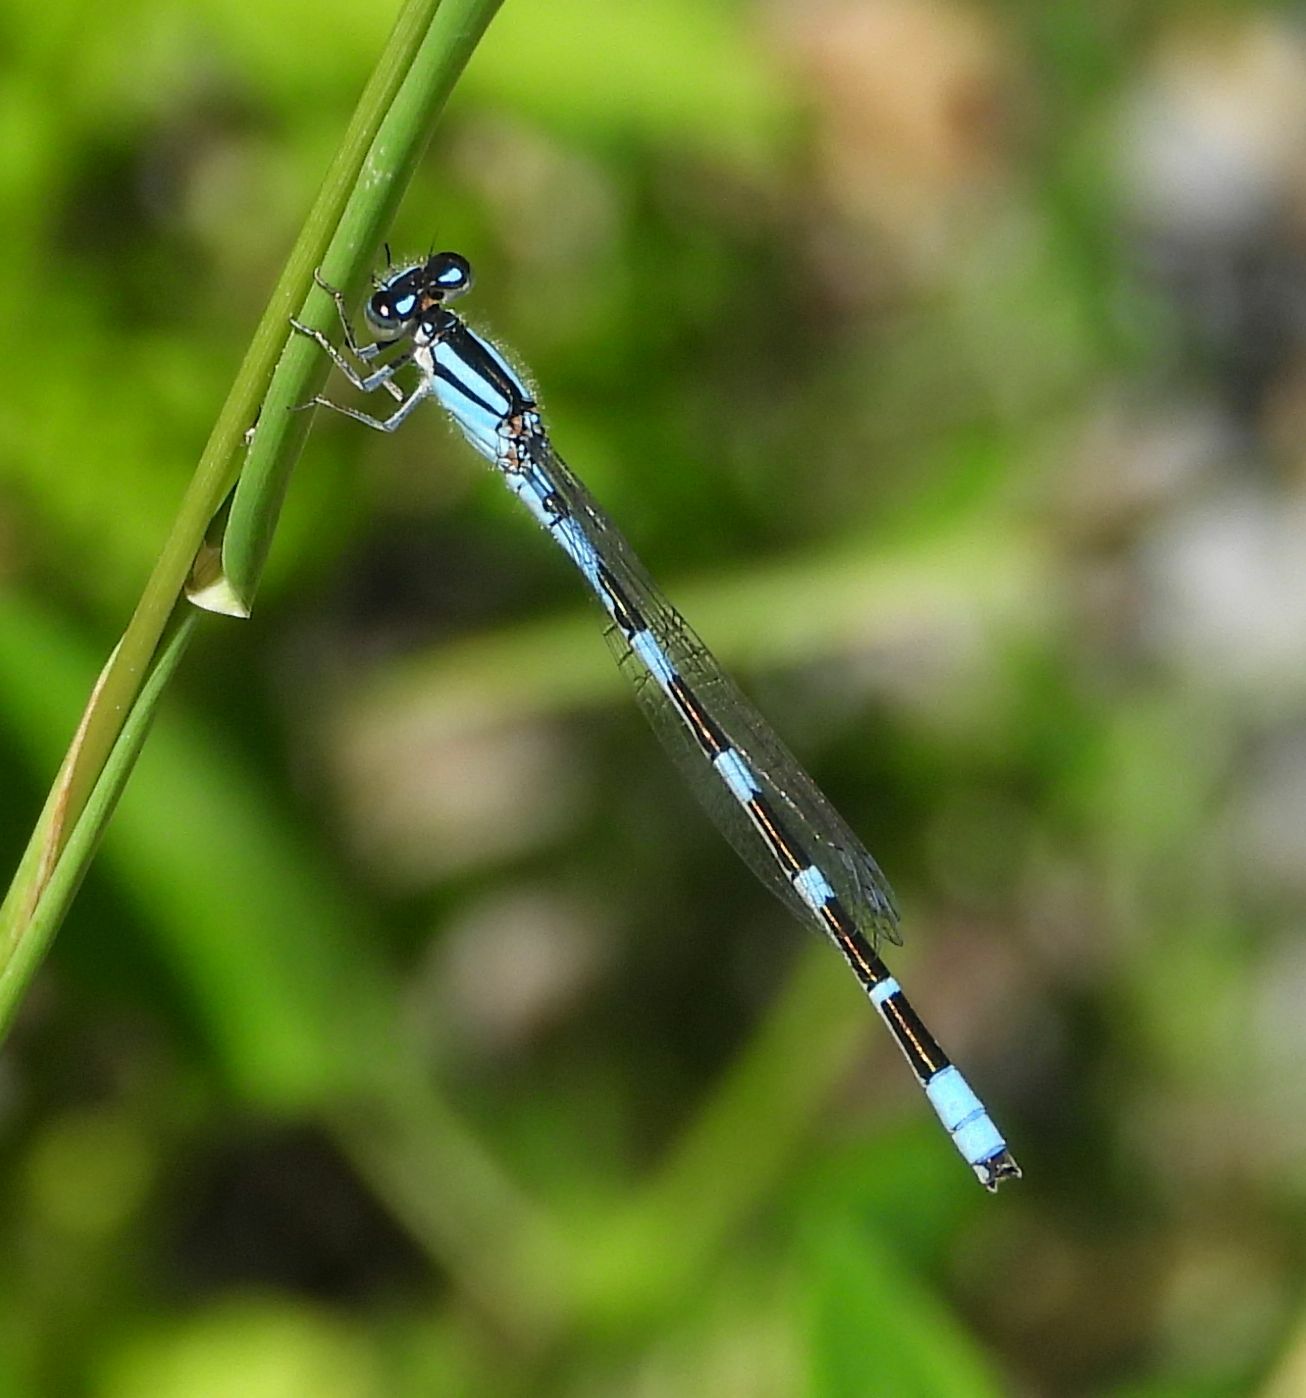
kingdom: Animalia
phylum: Arthropoda
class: Insecta
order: Odonata
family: Coenagrionidae
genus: Enallagma
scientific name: Enallagma carunculatum
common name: Tule bluet
